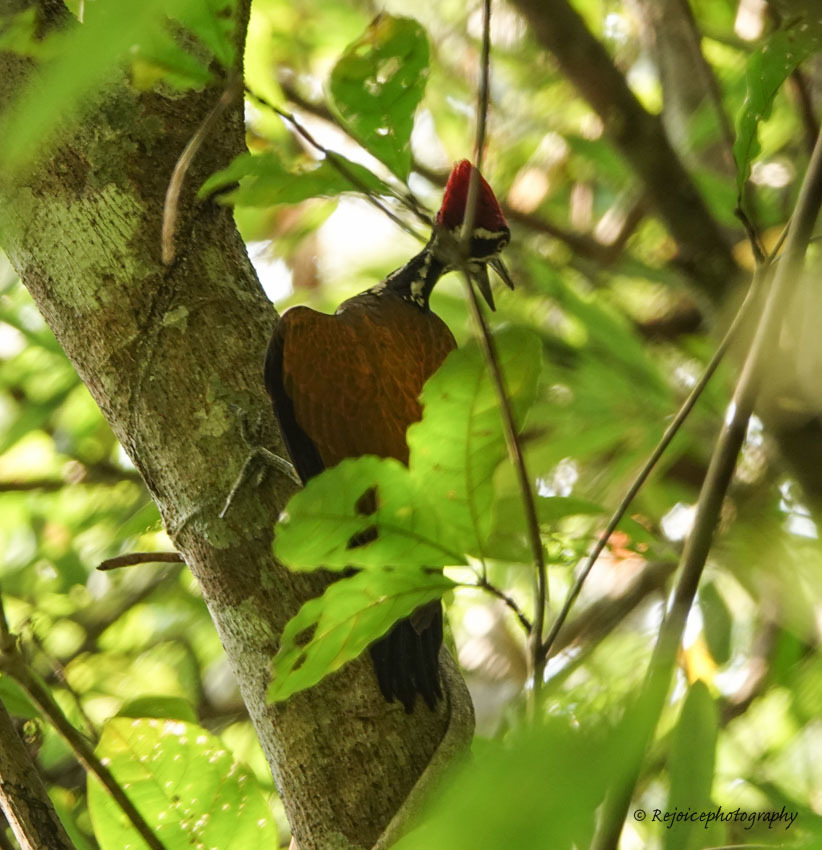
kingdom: Animalia
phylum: Chordata
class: Aves
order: Piciformes
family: Picidae
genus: Chrysocolaptes
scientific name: Chrysocolaptes guttacristatus
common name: Greater flameback
